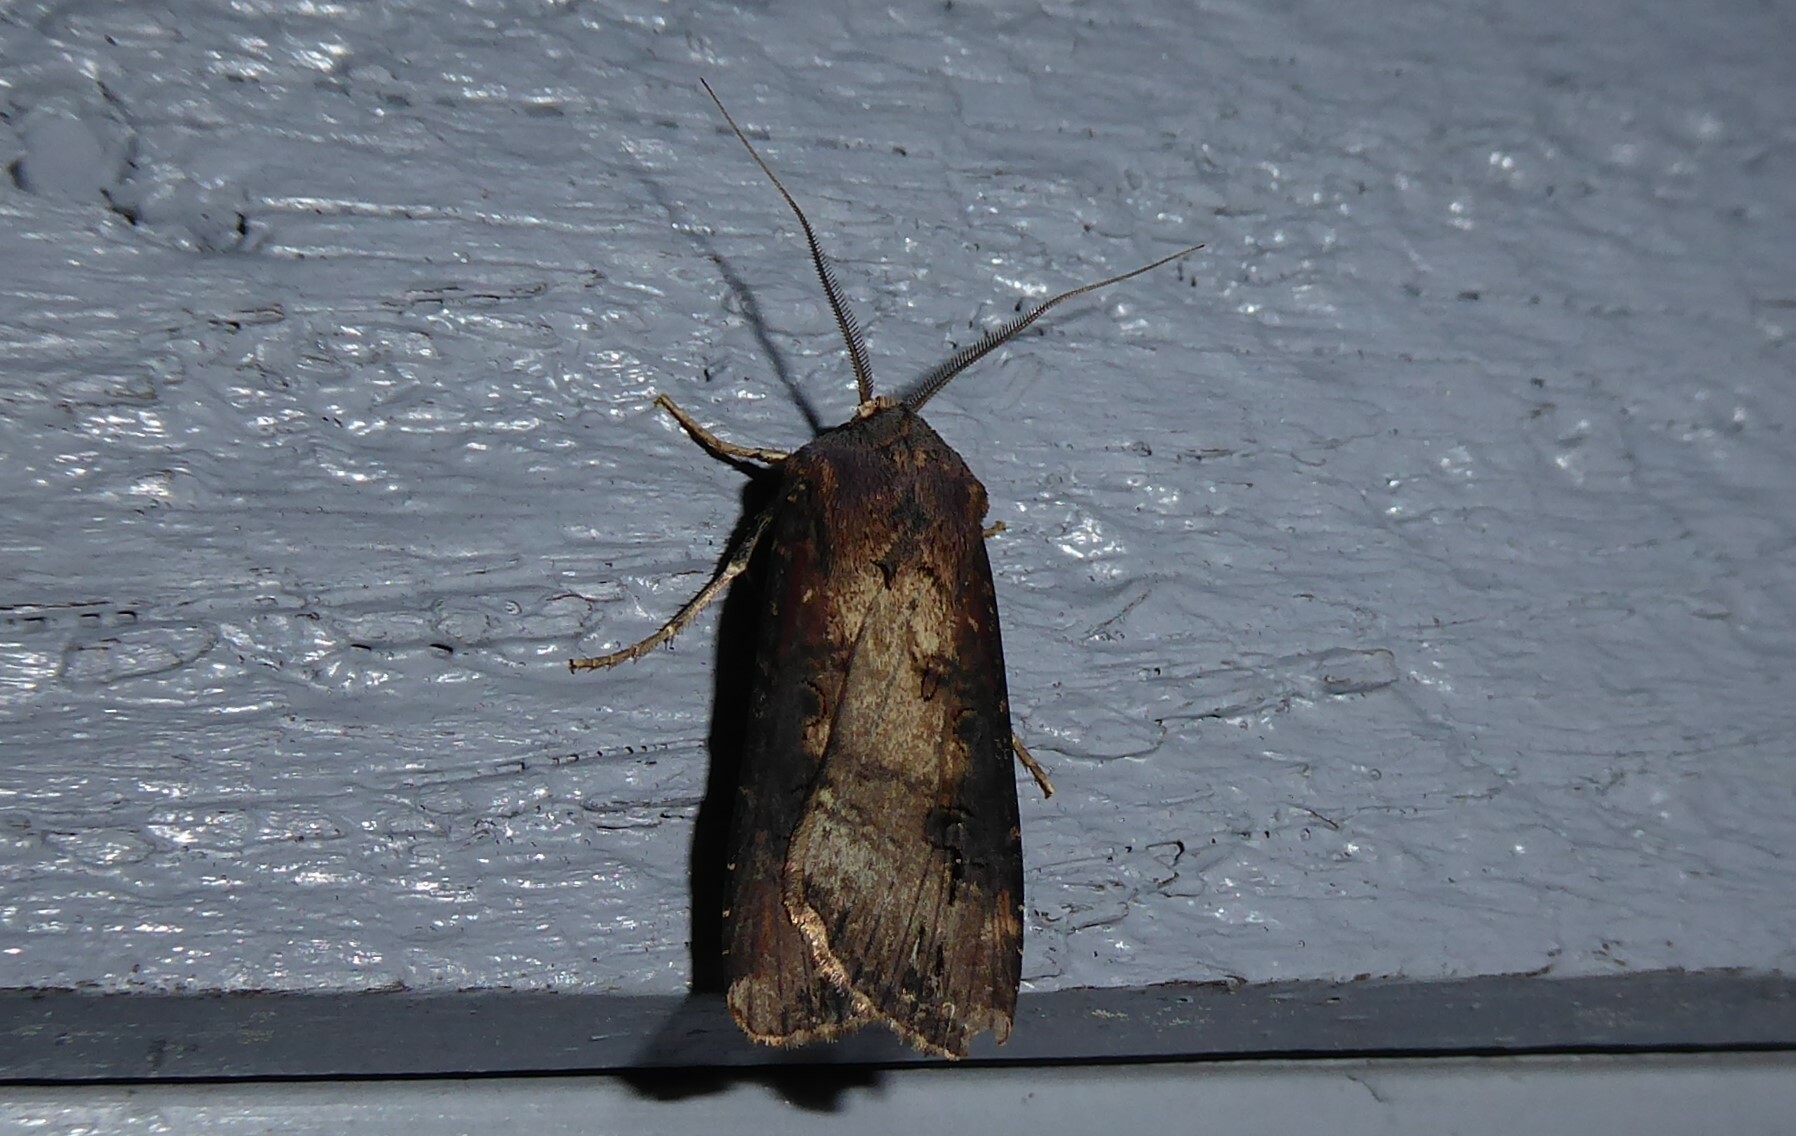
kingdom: Animalia
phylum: Arthropoda
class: Insecta
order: Lepidoptera
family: Noctuidae
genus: Agrotis
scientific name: Agrotis ipsilon
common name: Dark sword-grass
